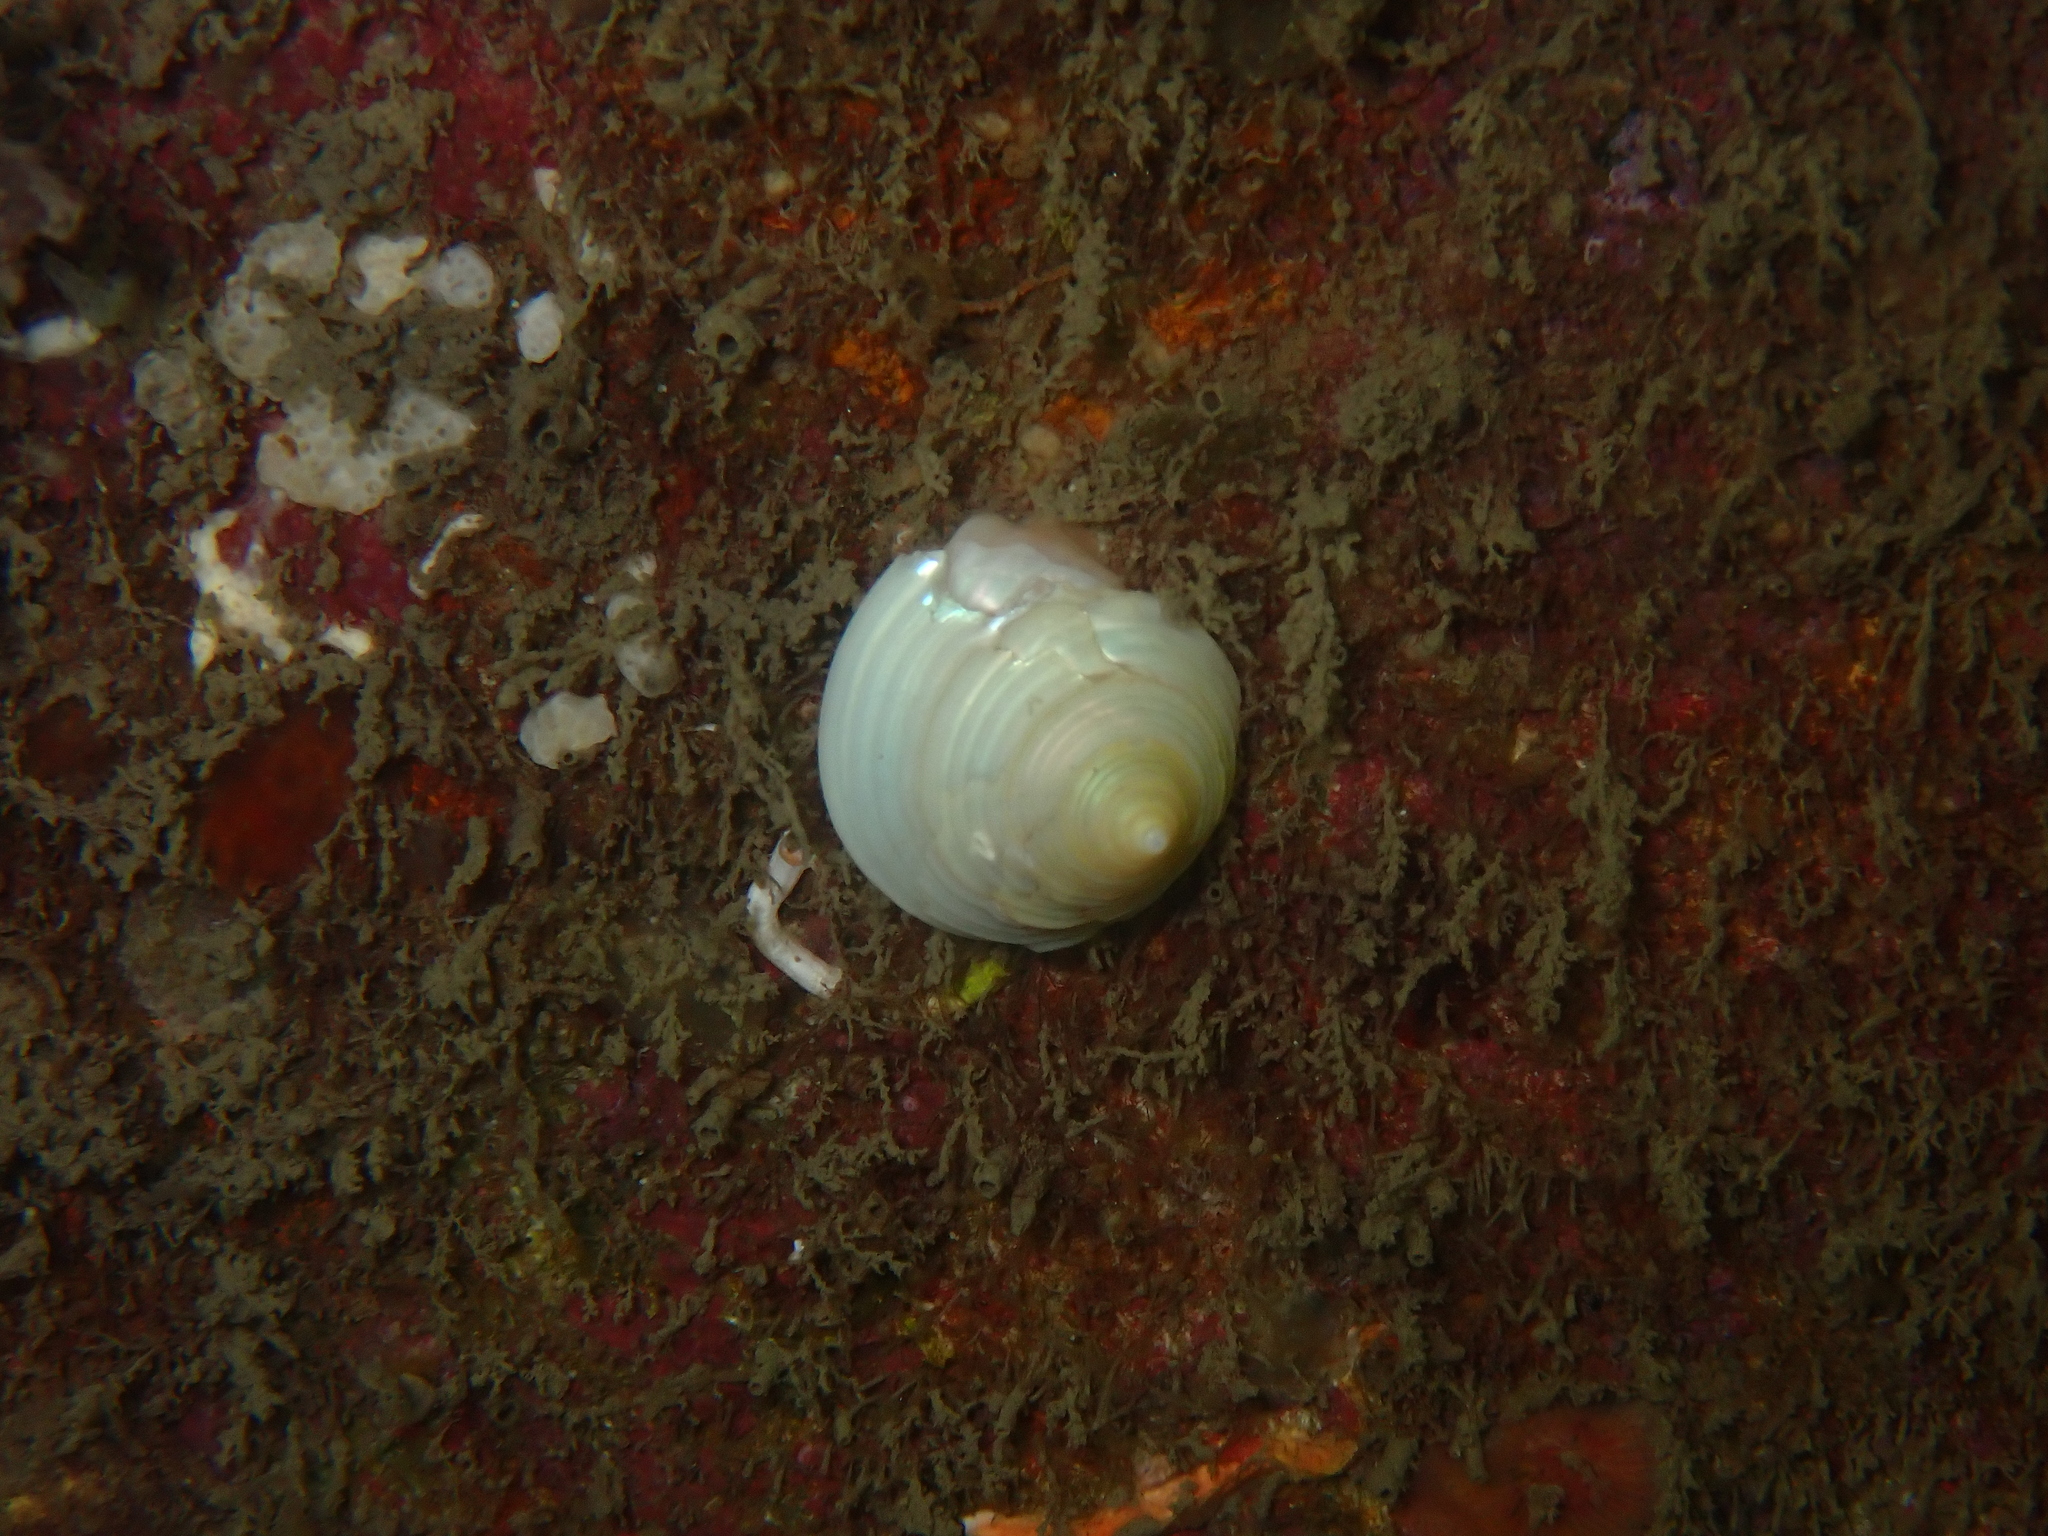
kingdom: Animalia
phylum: Mollusca
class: Gastropoda
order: Trochida
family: Calliostomatidae
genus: Calliostoma
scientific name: Calliostoma zizyphinum
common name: Painted top shell
